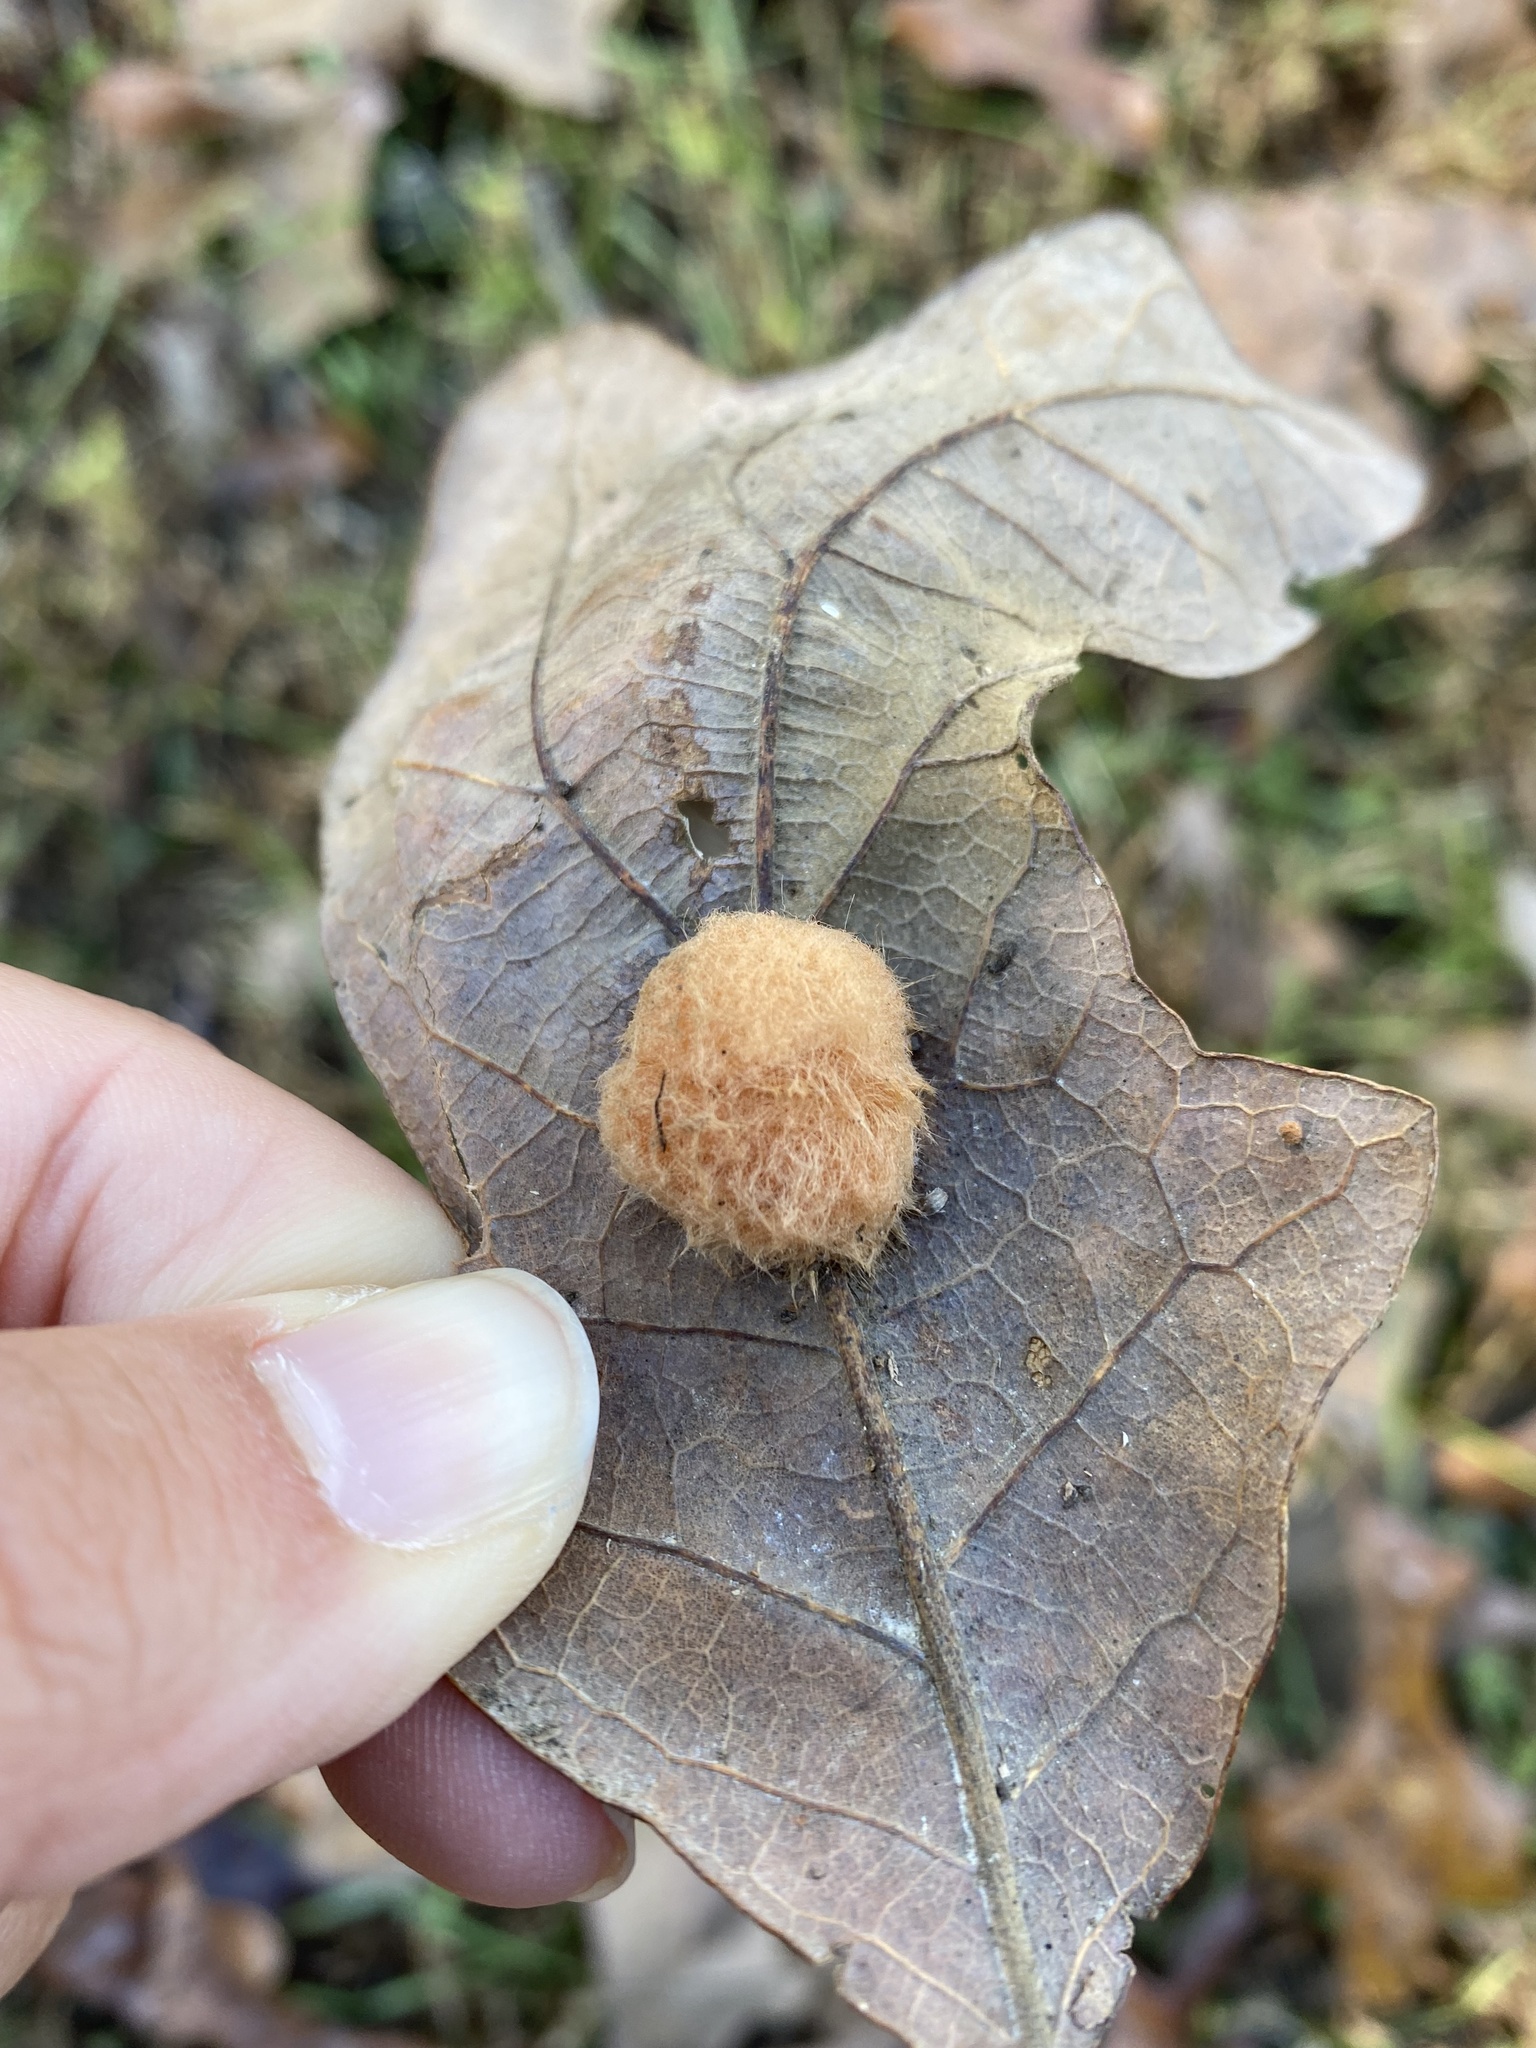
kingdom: Animalia
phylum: Arthropoda
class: Insecta
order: Hymenoptera
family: Cynipidae
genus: Andricus
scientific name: Andricus quercusflocci
